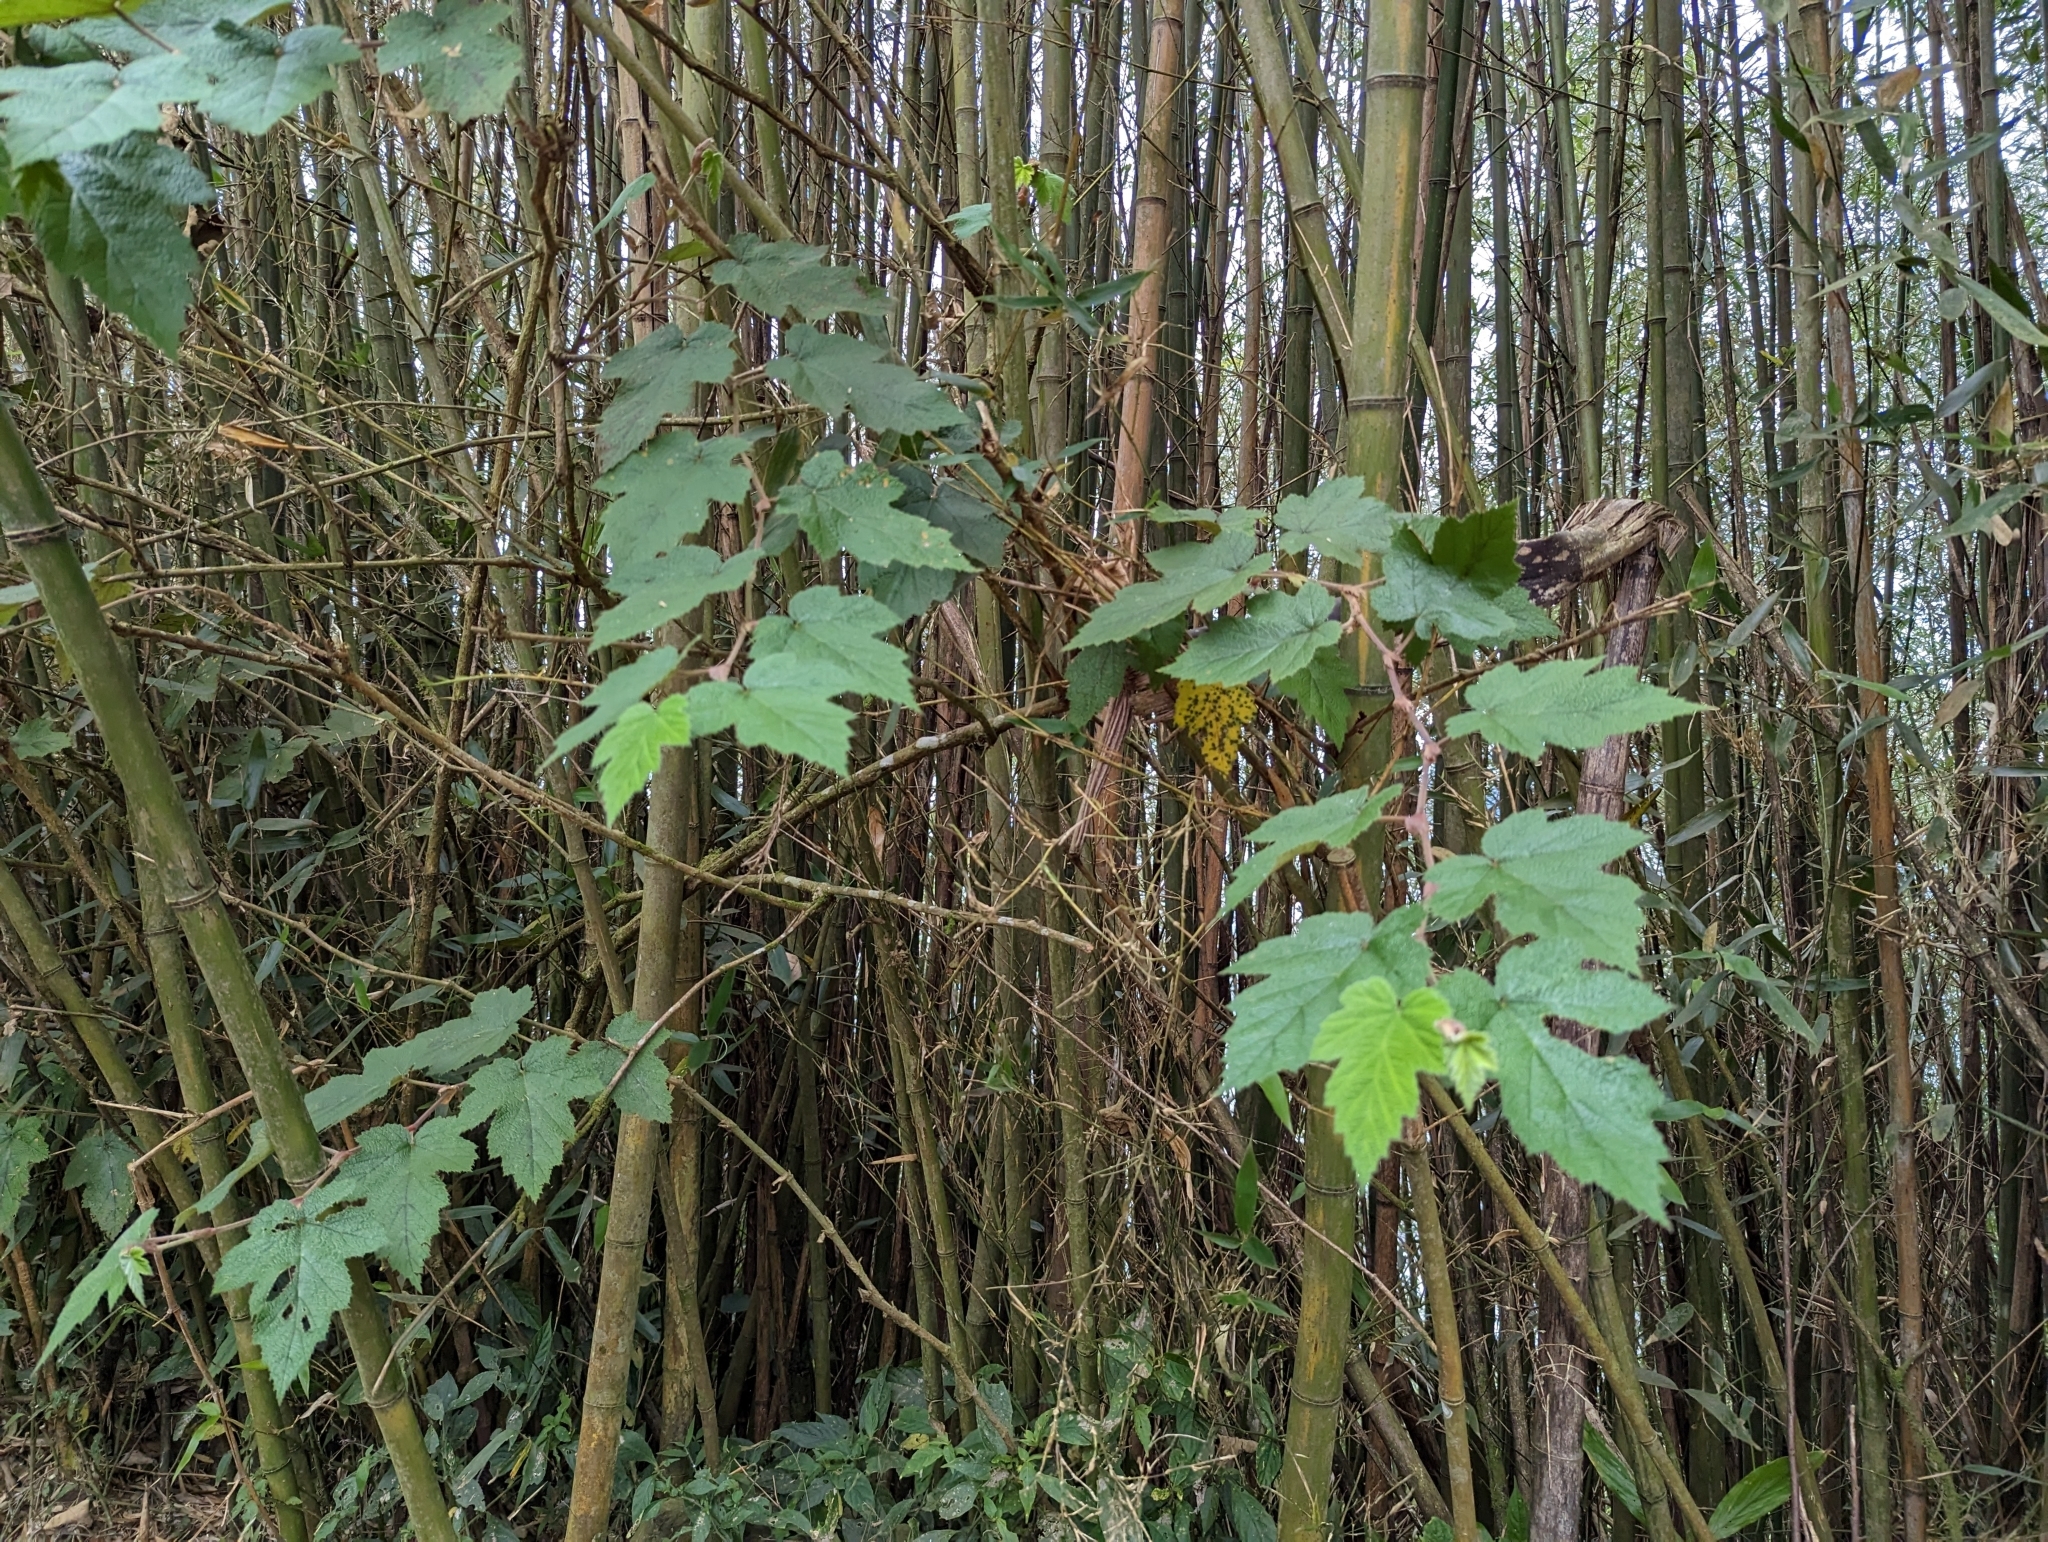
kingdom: Plantae
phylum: Tracheophyta
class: Magnoliopsida
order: Rosales
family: Rosaceae
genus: Rubus
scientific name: Rubus formosensis
